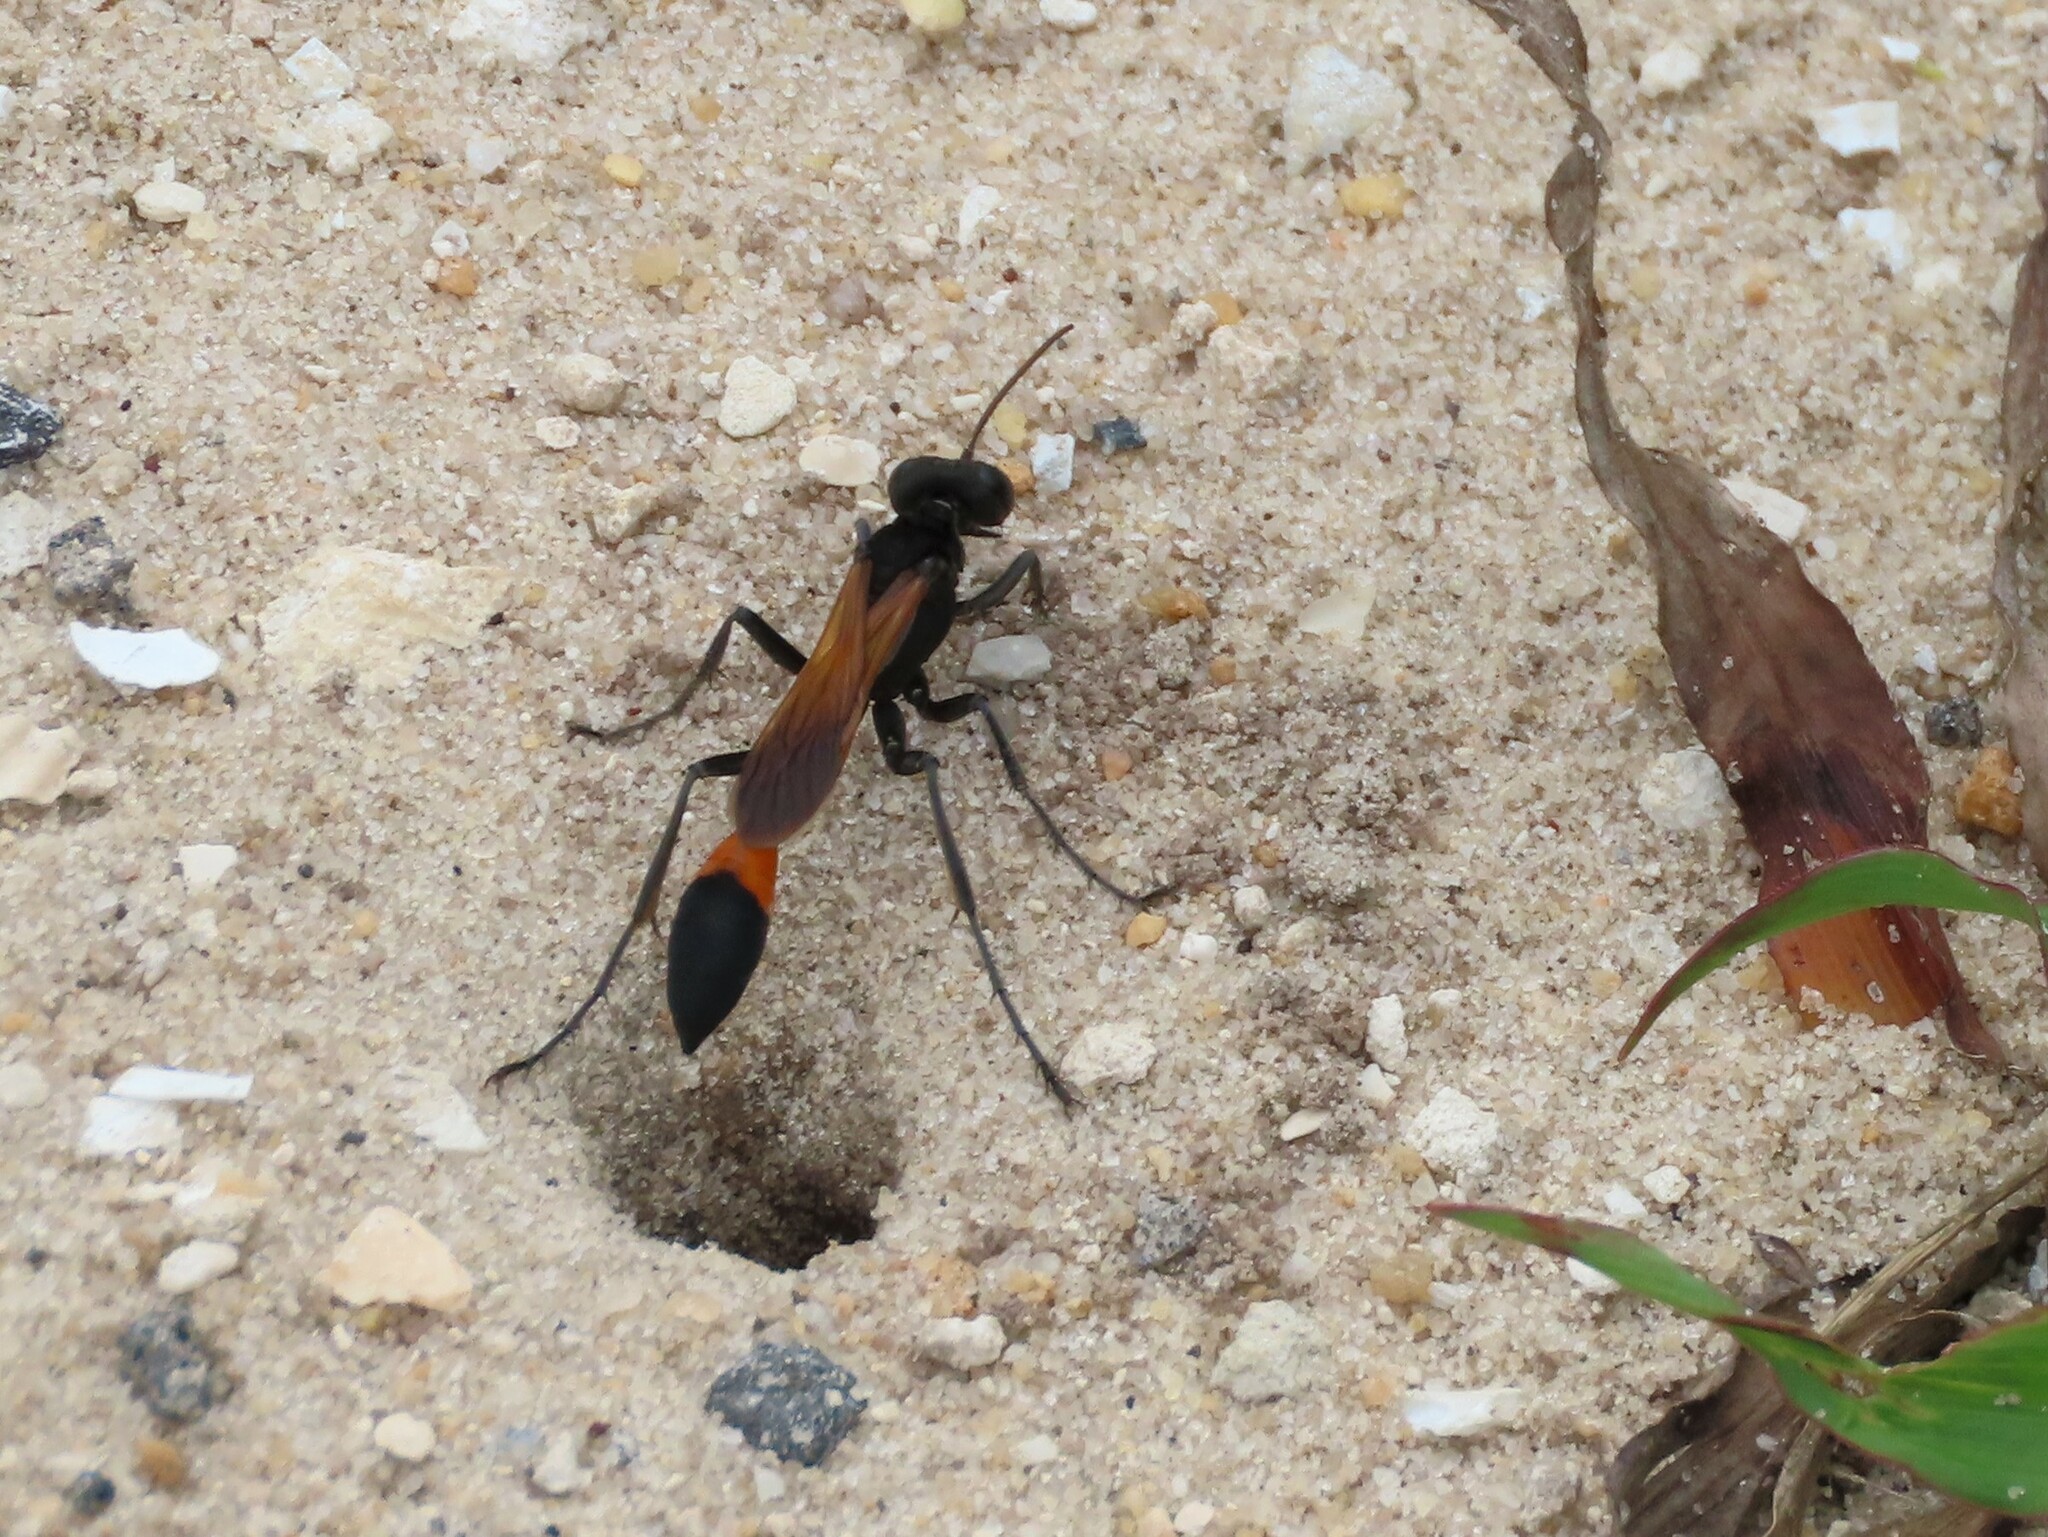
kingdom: Animalia
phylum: Arthropoda
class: Insecta
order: Hymenoptera
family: Sphecidae
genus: Ammophila
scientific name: Ammophila pictipennis
